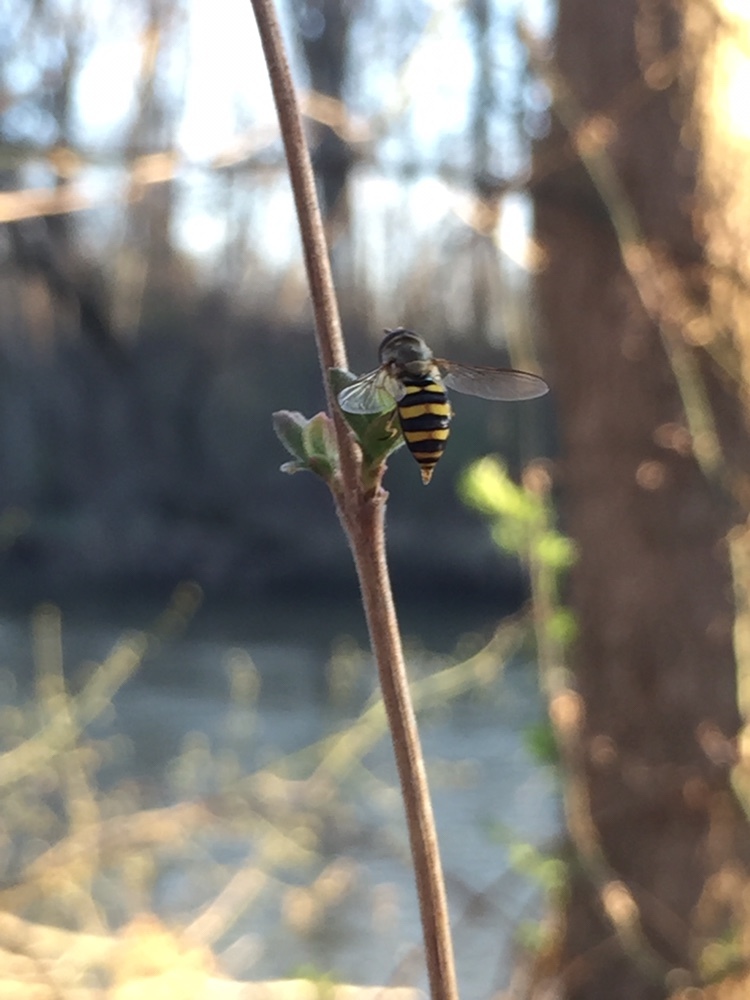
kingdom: Animalia
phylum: Arthropoda
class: Insecta
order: Diptera
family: Syrphidae
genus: Eupeodes
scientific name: Eupeodes
